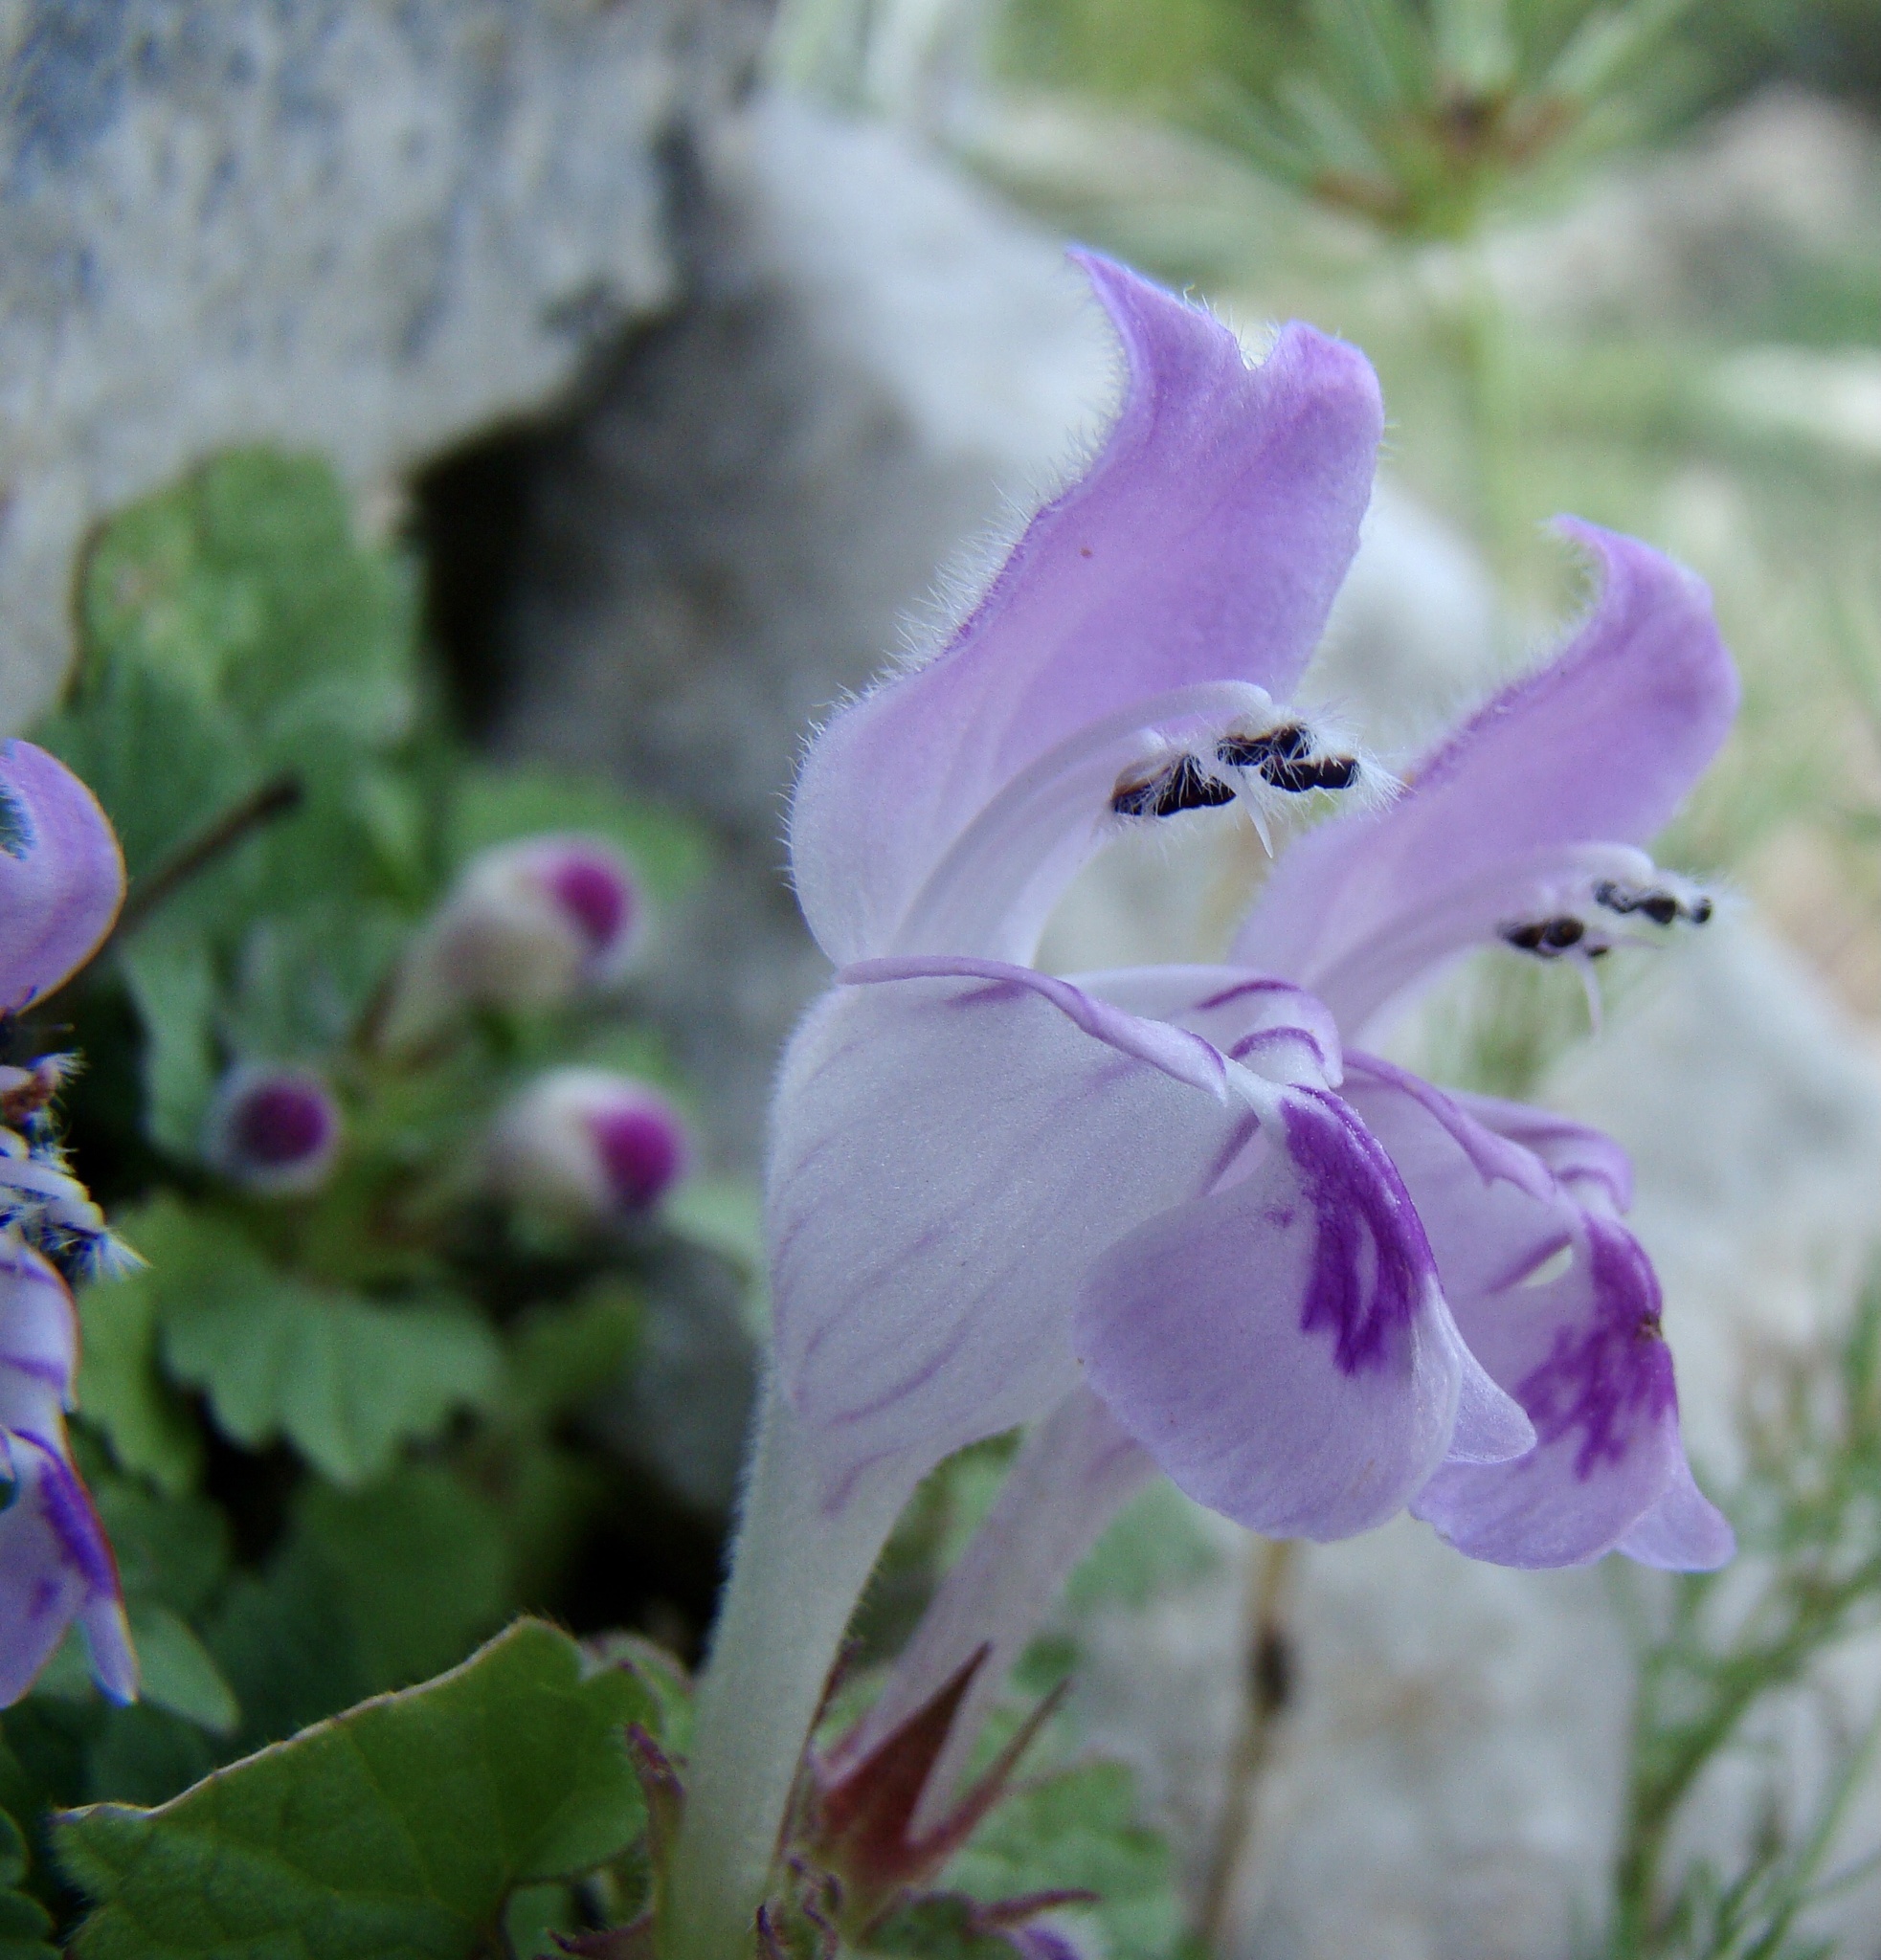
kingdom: Plantae
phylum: Tracheophyta
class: Magnoliopsida
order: Lamiales
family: Lamiaceae
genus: Lamium
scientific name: Lamium garganicum
